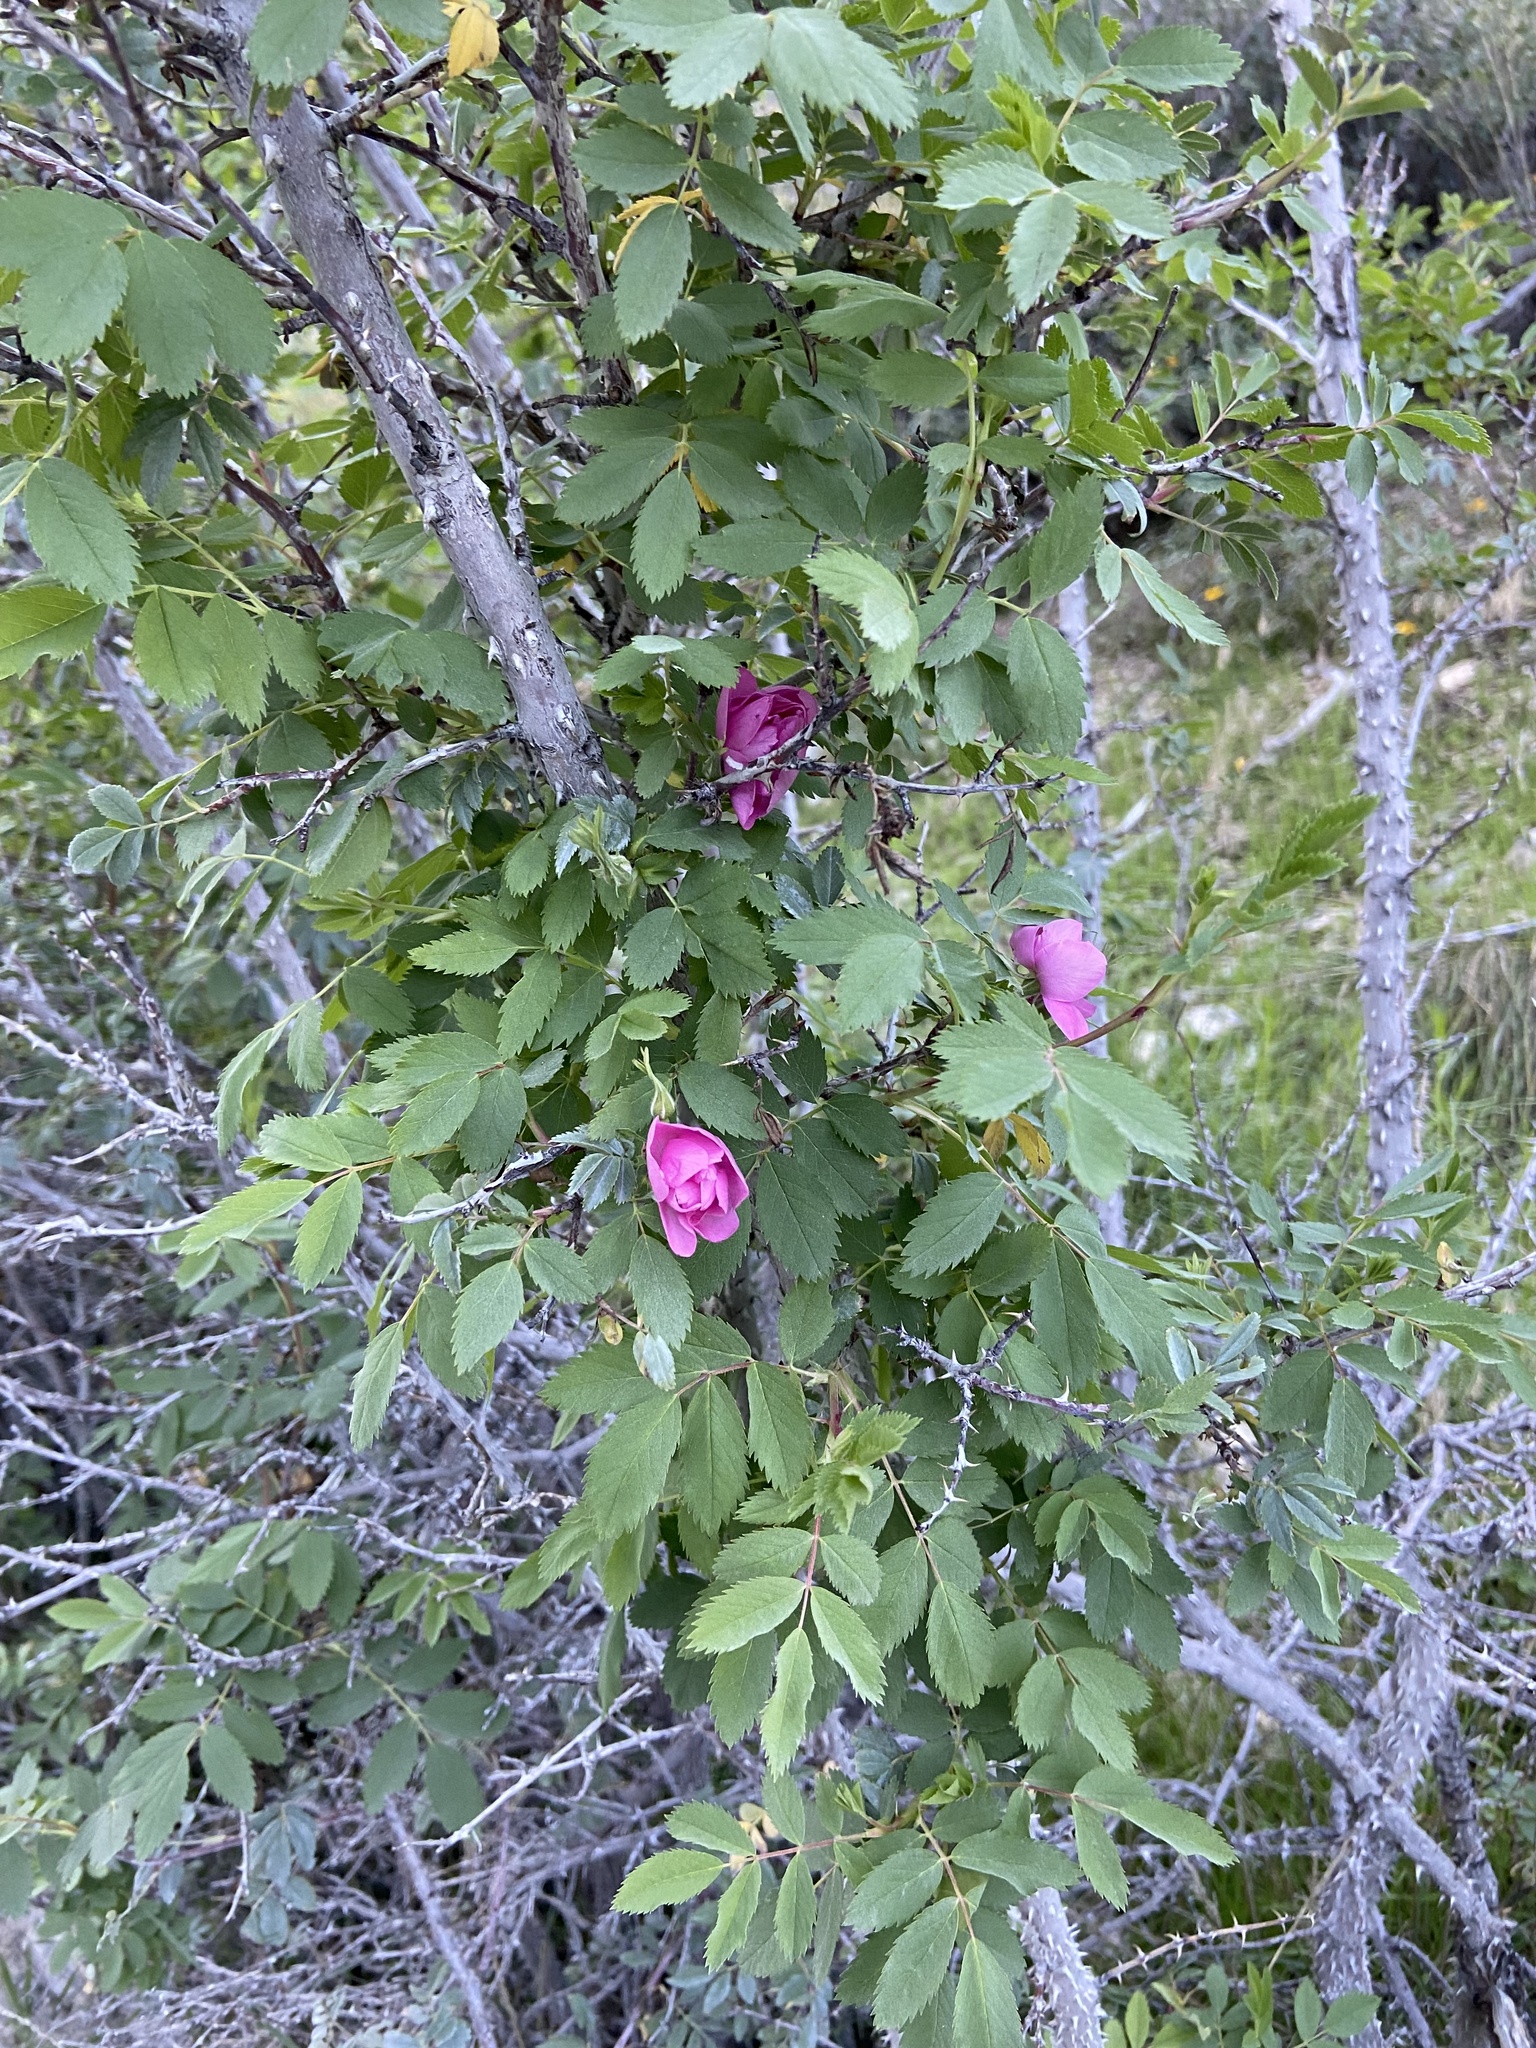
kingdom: Plantae
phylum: Tracheophyta
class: Magnoliopsida
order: Rosales
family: Rosaceae
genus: Rosa
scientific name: Rosa woodsii
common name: Woods's rose
